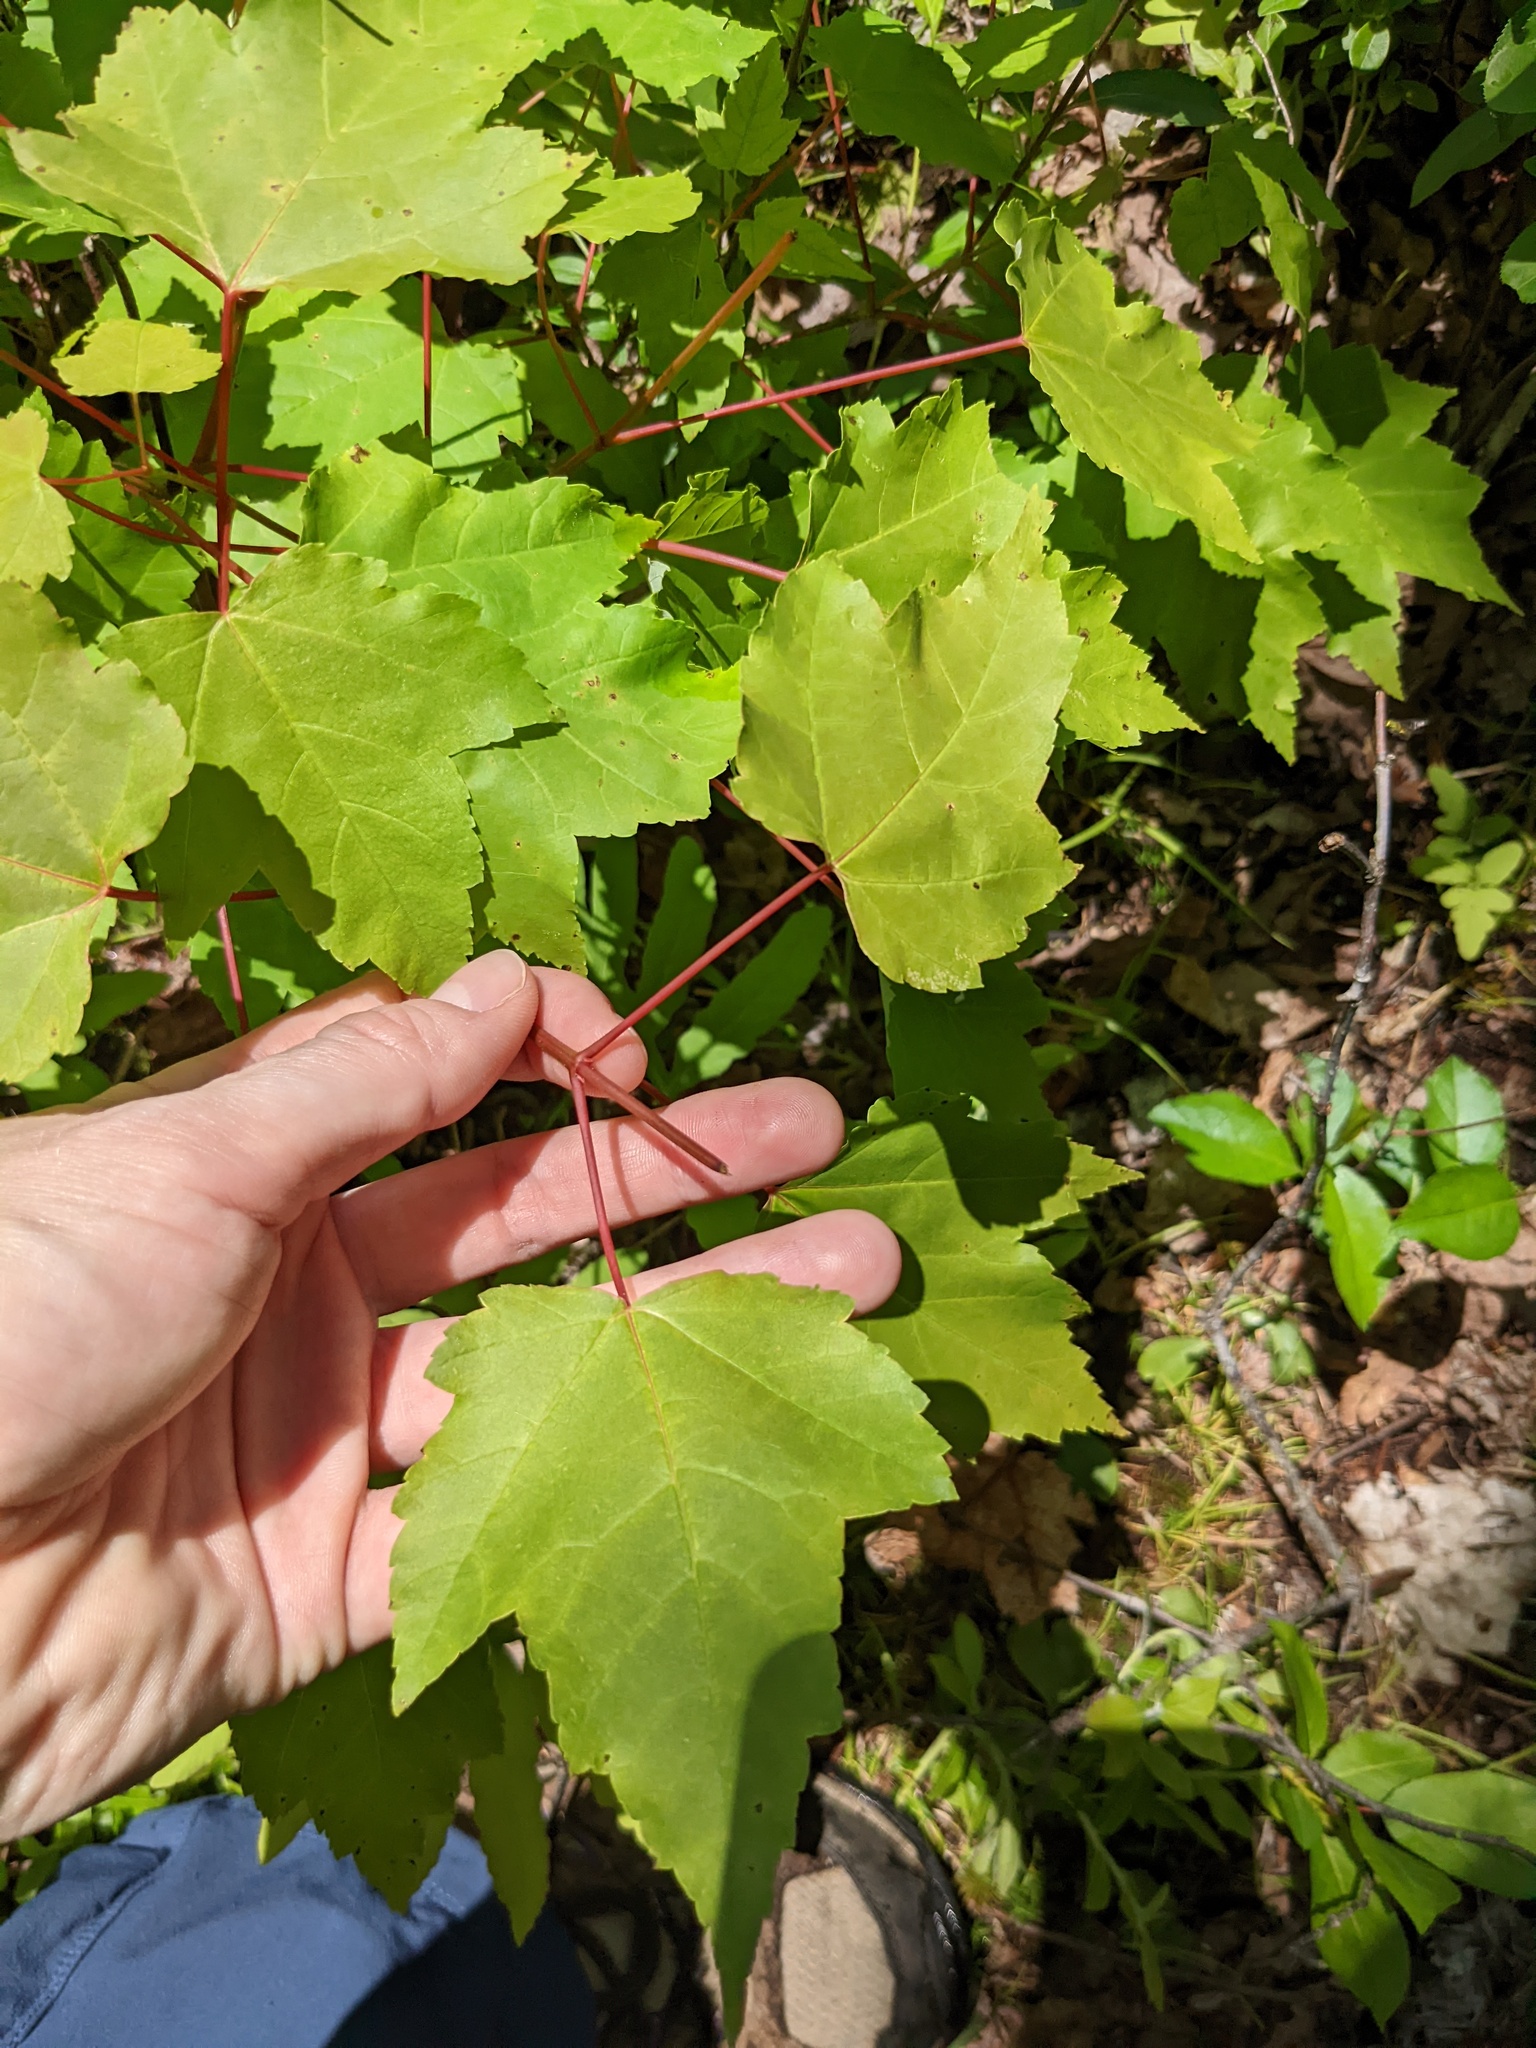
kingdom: Plantae
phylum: Tracheophyta
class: Magnoliopsida
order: Sapindales
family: Sapindaceae
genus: Acer
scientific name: Acer rubrum
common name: Red maple
